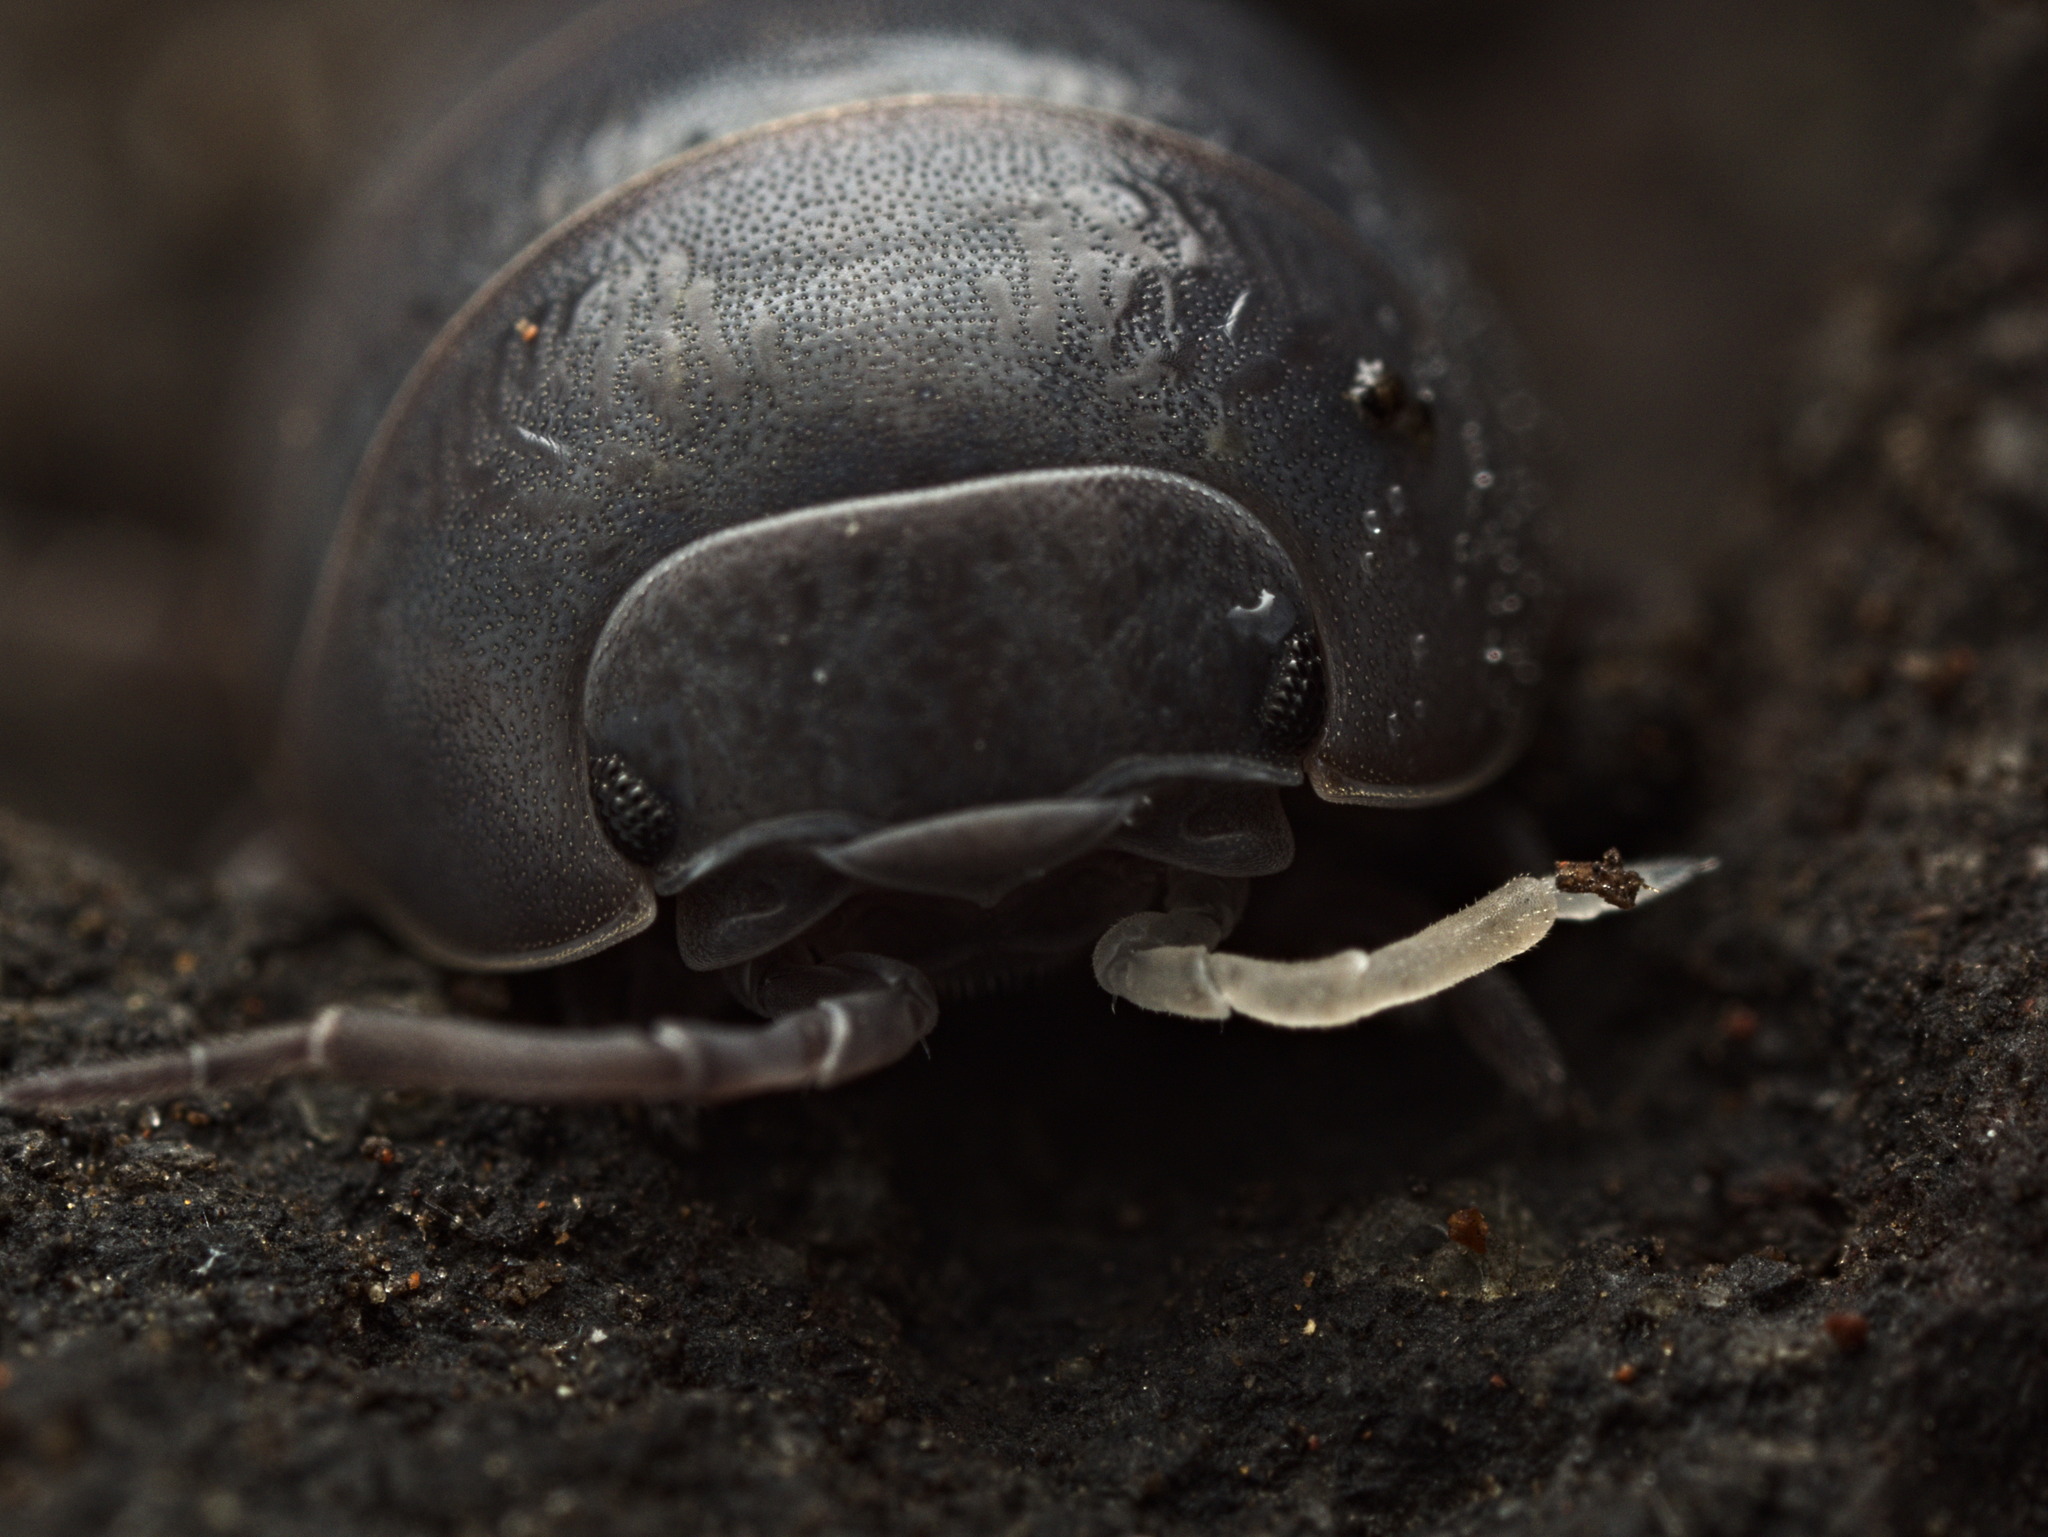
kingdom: Animalia
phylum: Arthropoda
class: Malacostraca
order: Isopoda
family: Armadillidiidae
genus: Armadillidium
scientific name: Armadillidium vulgare
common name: Common pill woodlouse
